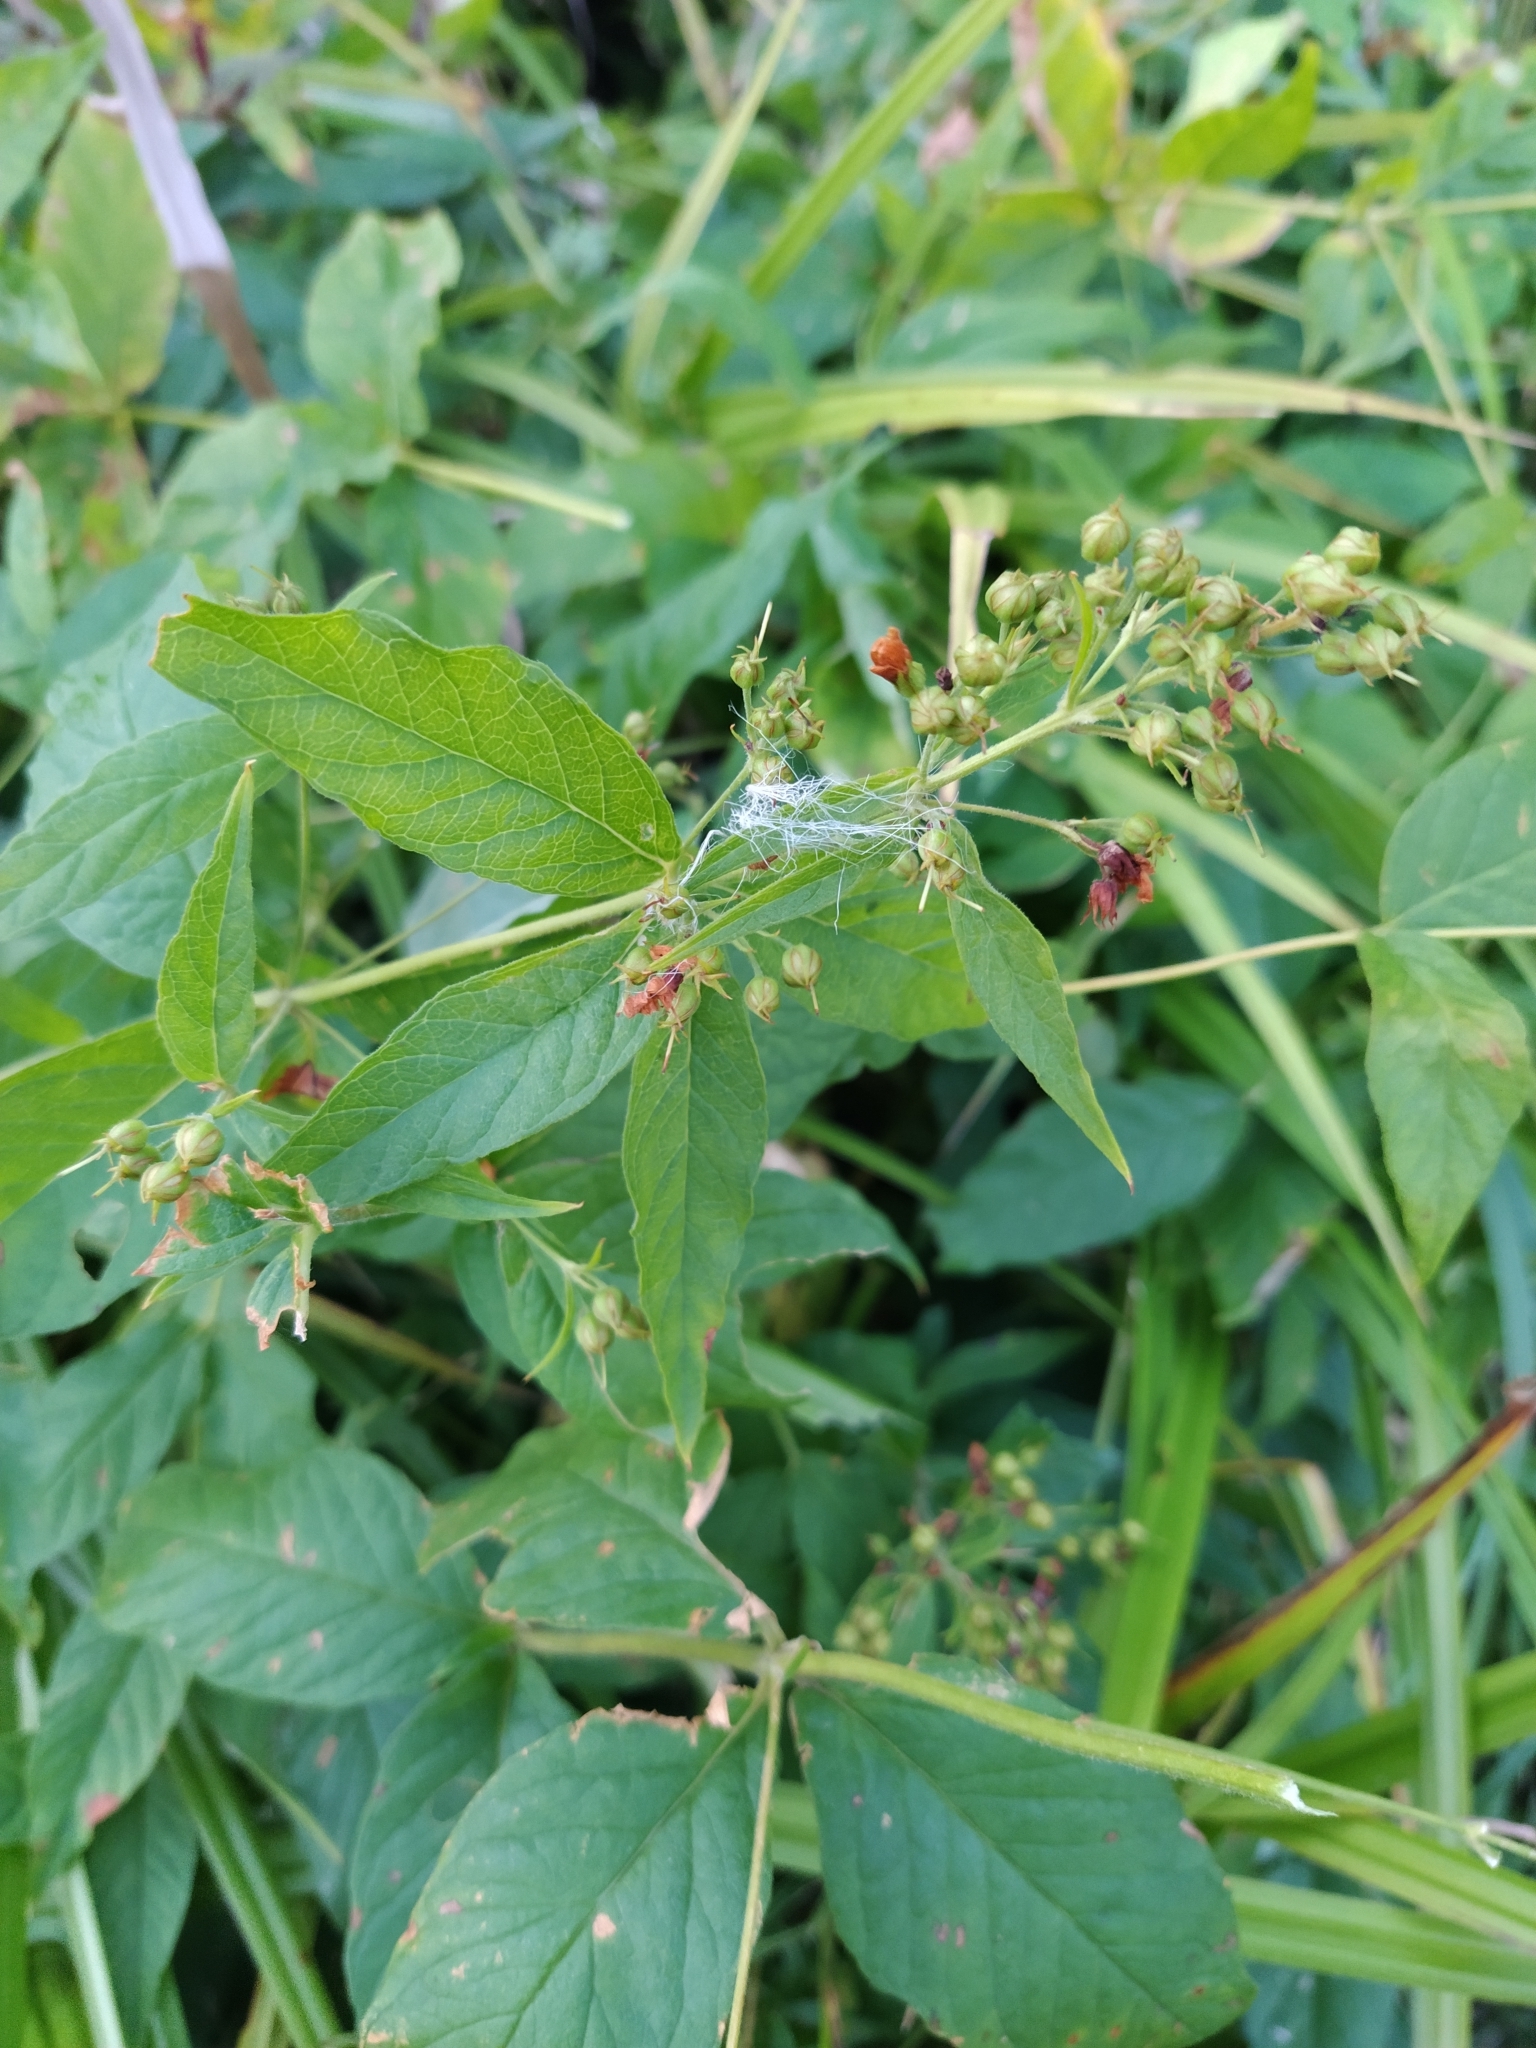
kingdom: Plantae
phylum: Tracheophyta
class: Magnoliopsida
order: Ericales
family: Primulaceae
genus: Lysimachia
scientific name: Lysimachia vulgaris
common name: Yellow loosestrife
